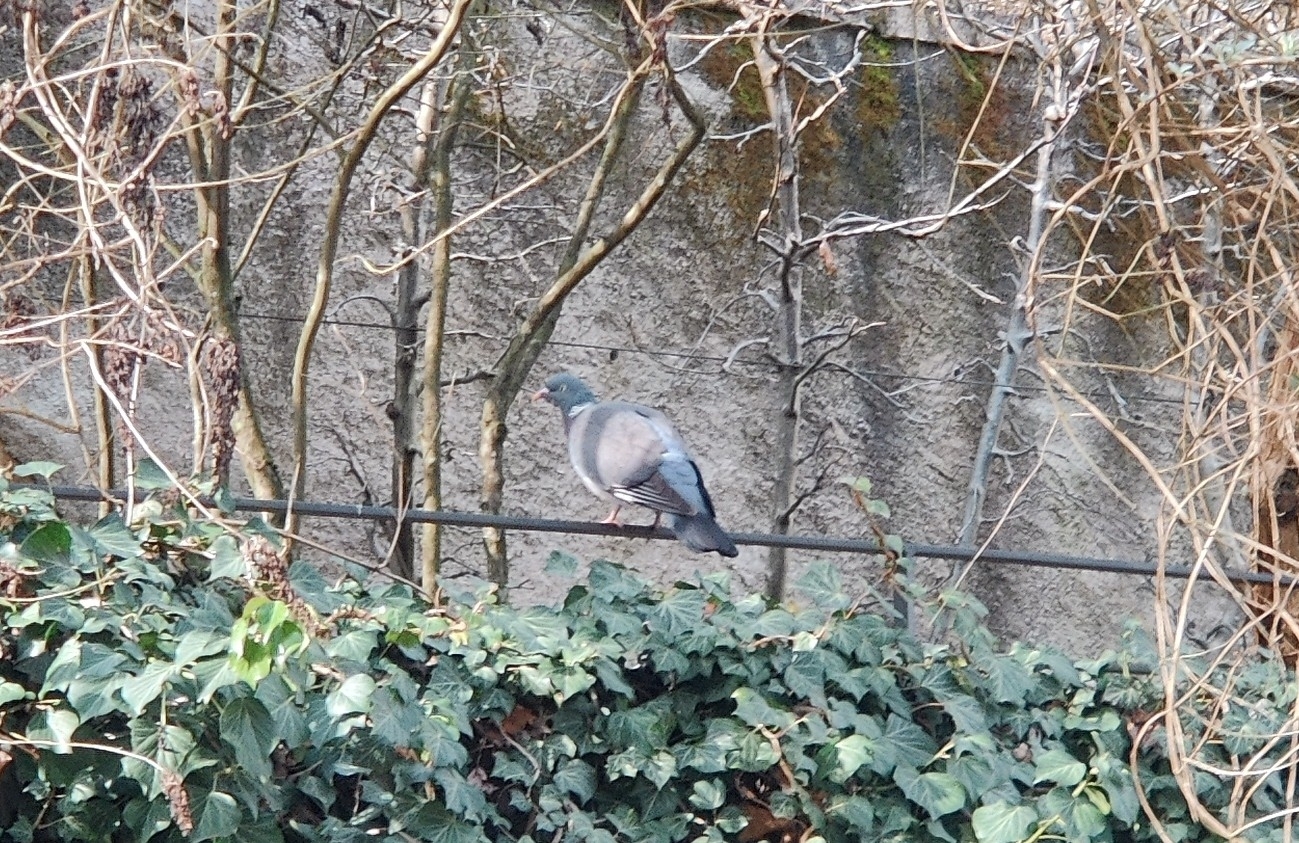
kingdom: Animalia
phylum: Chordata
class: Aves
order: Columbiformes
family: Columbidae
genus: Columba
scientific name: Columba palumbus
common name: Common wood pigeon
